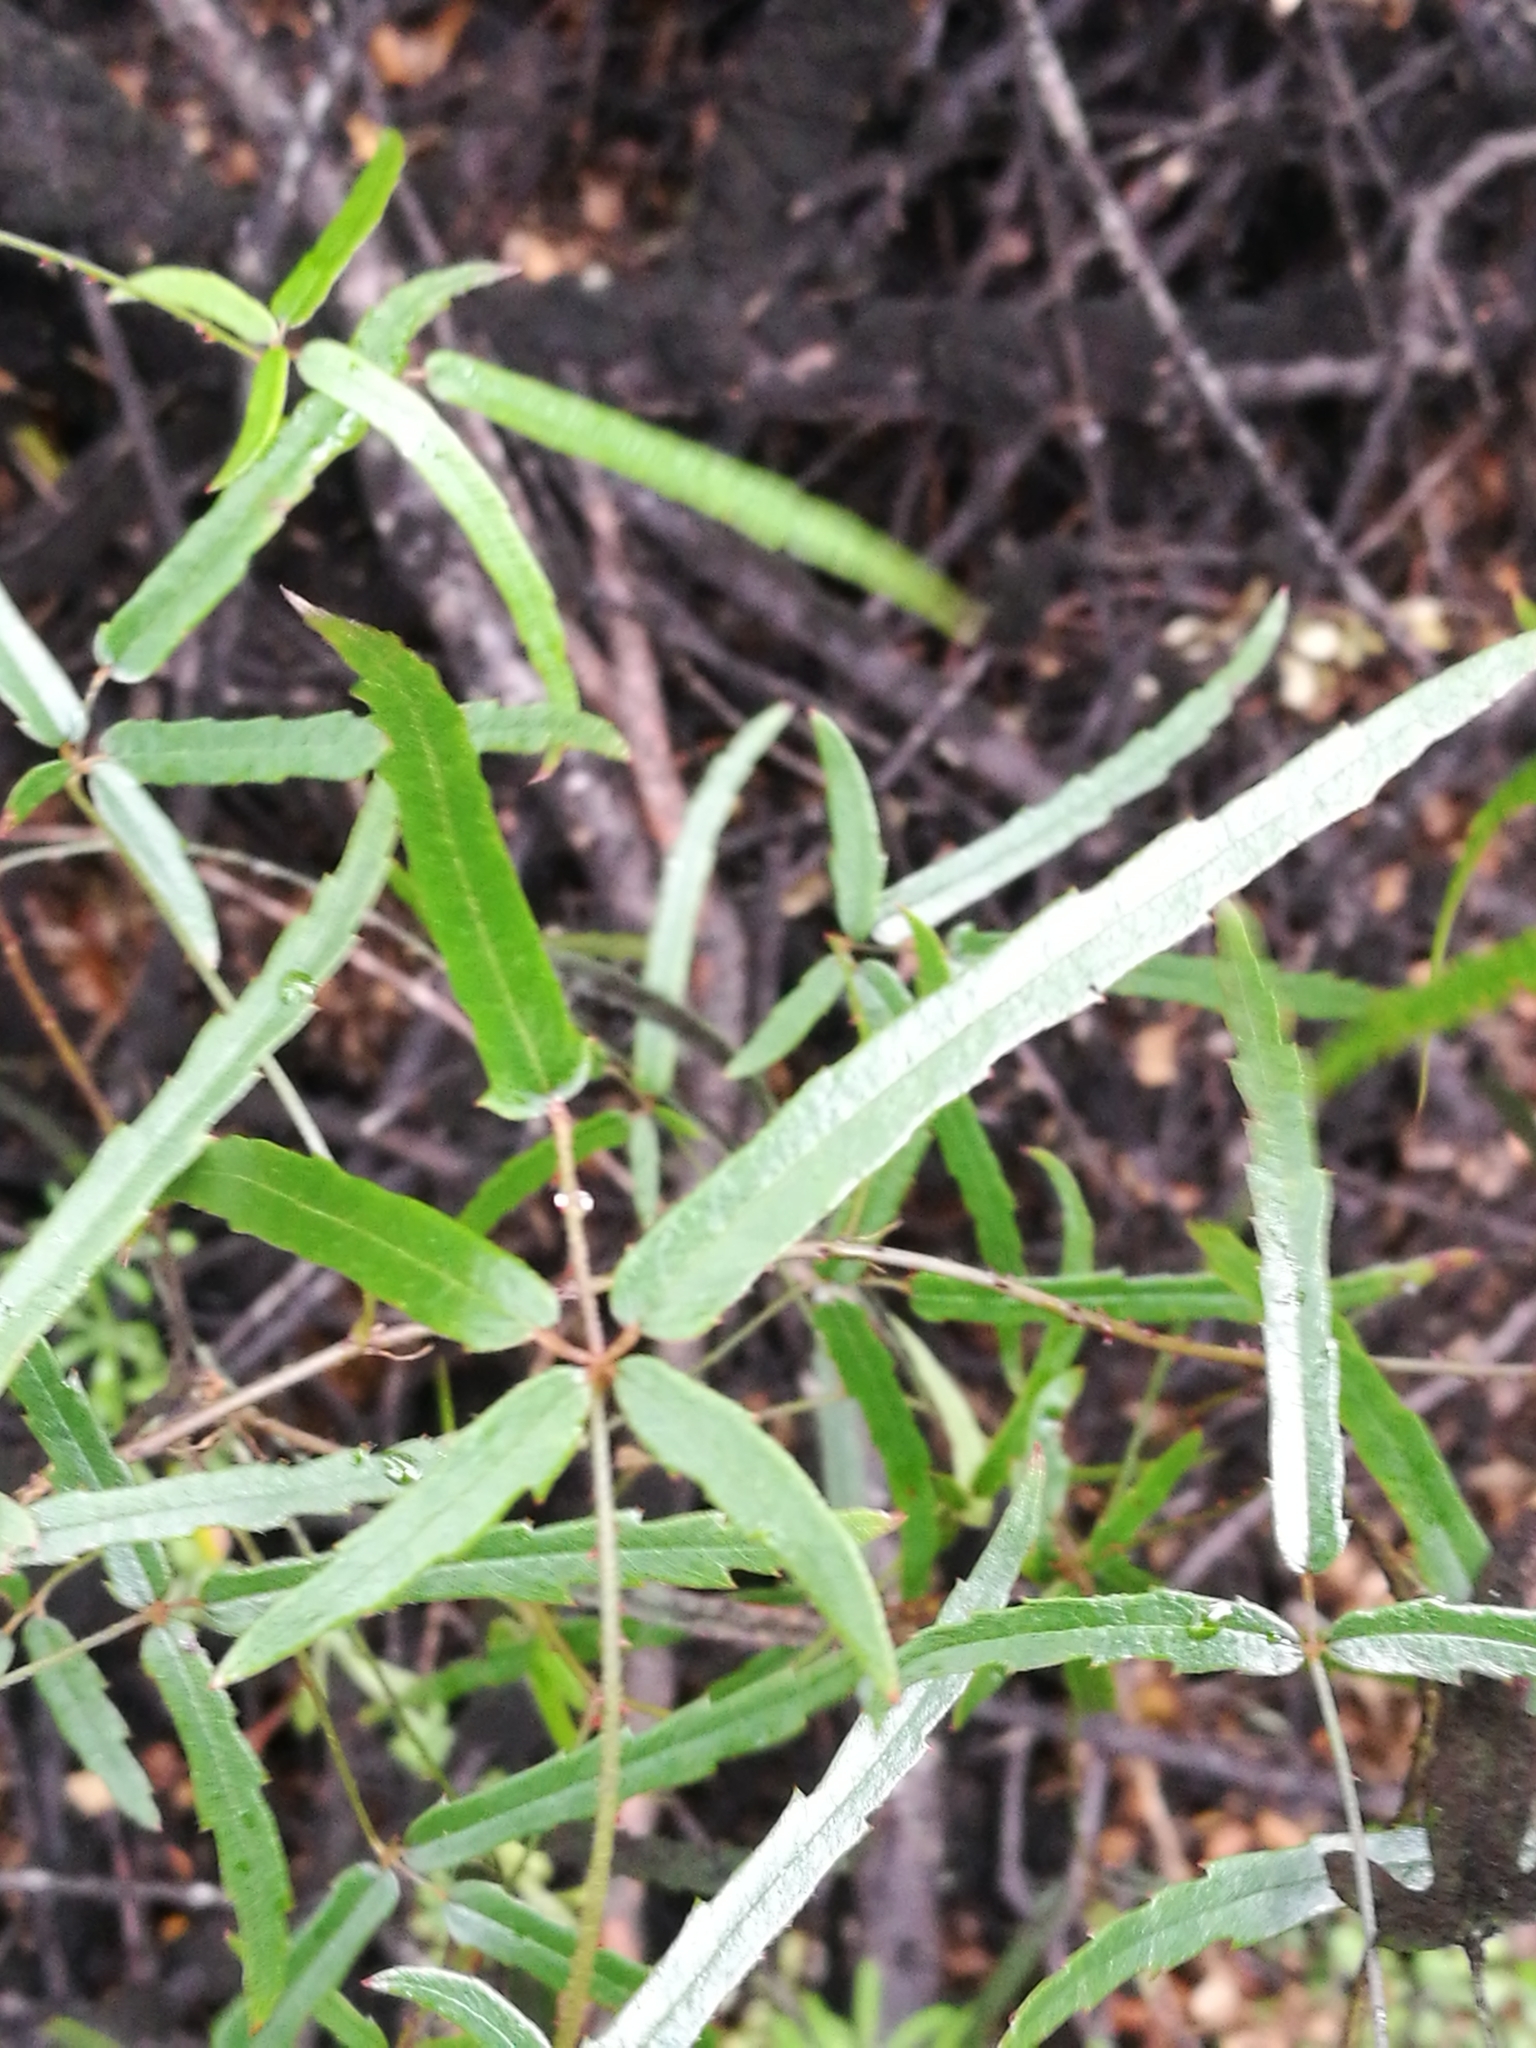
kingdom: Plantae
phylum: Tracheophyta
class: Magnoliopsida
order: Rosales
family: Rosaceae
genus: Rubus
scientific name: Rubus schmidelioides
